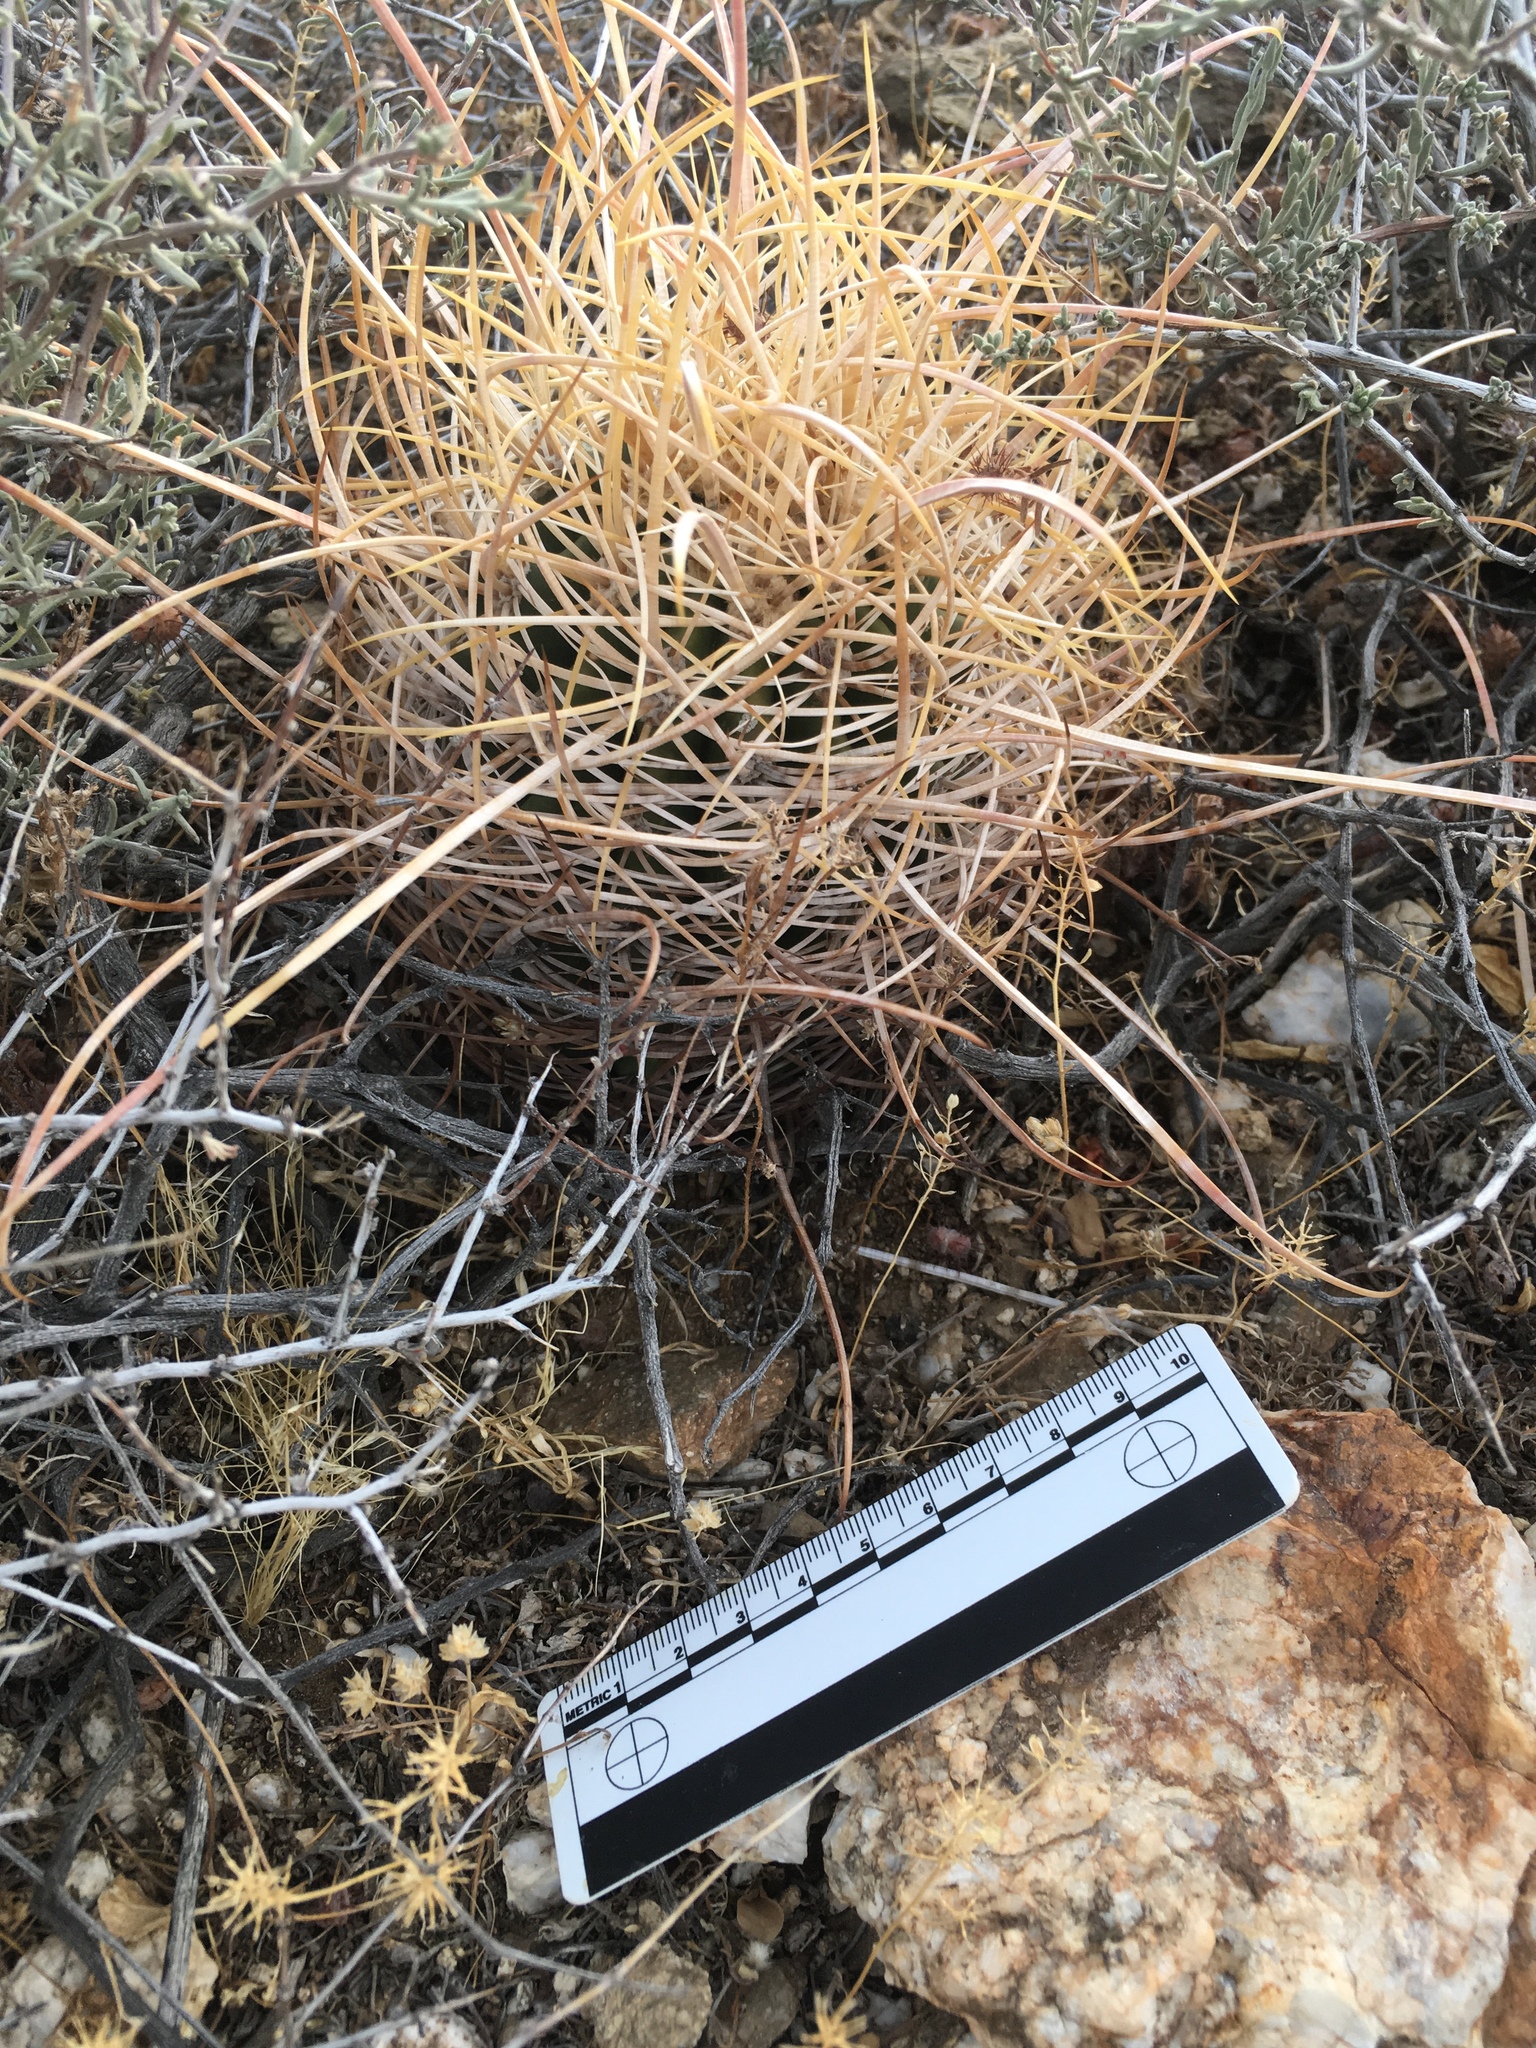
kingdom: Plantae
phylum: Tracheophyta
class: Magnoliopsida
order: Caryophyllales
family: Cactaceae
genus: Ferocactus
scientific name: Ferocactus cylindraceus
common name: California barrel cactus
